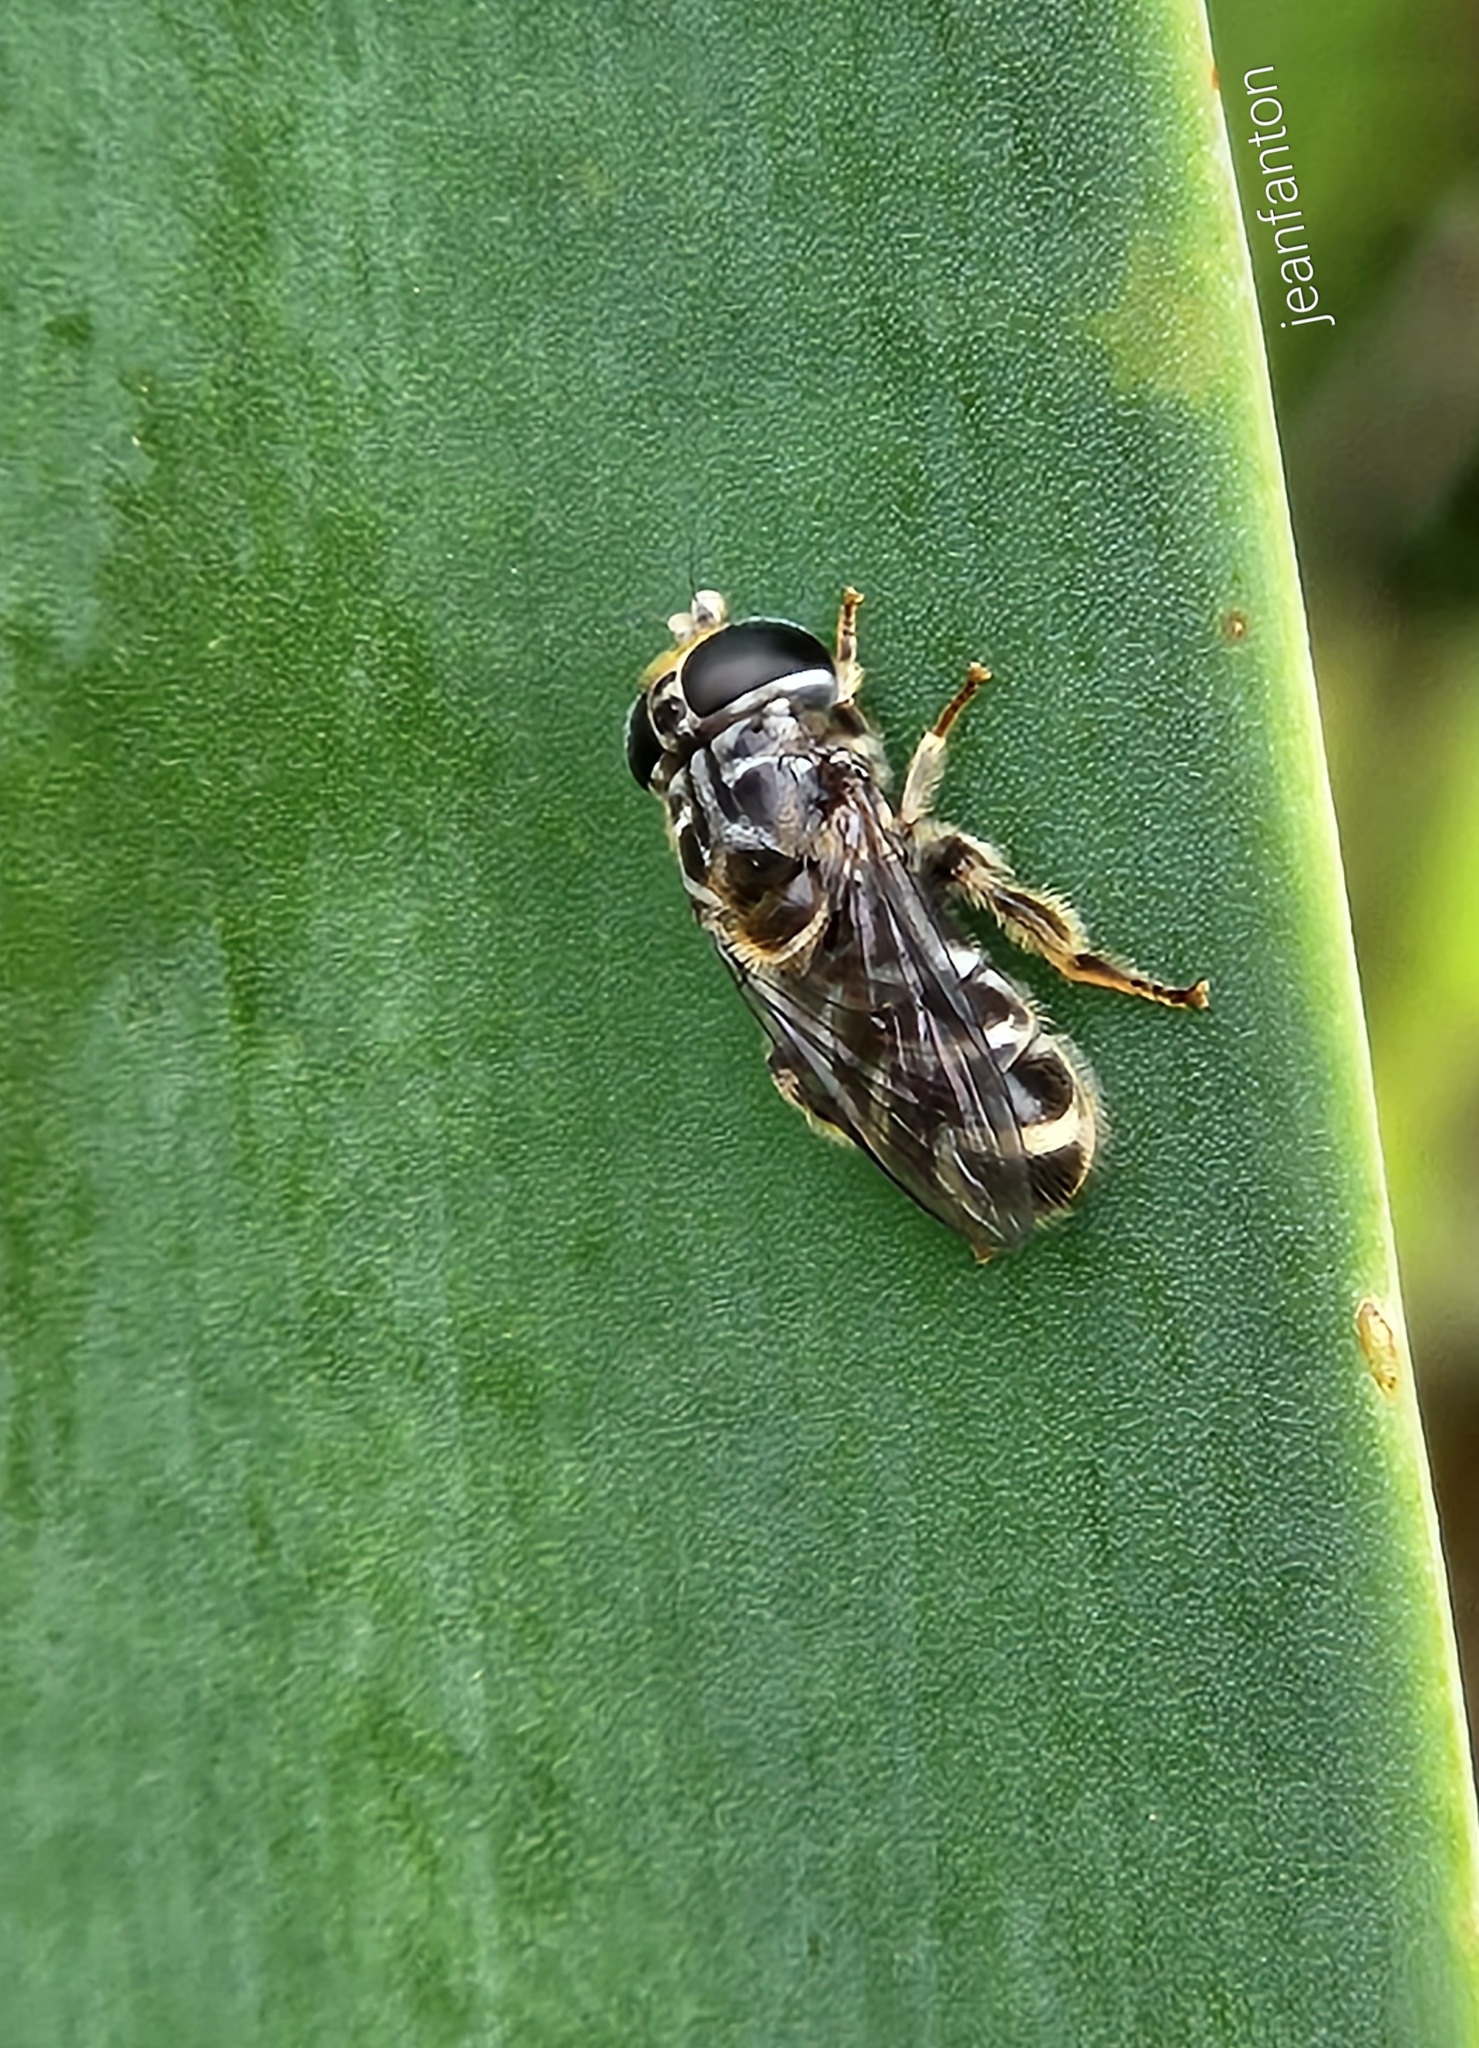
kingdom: Animalia
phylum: Arthropoda
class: Insecta
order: Diptera
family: Syrphidae
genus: Eumerus
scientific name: Eumerus obliquus
